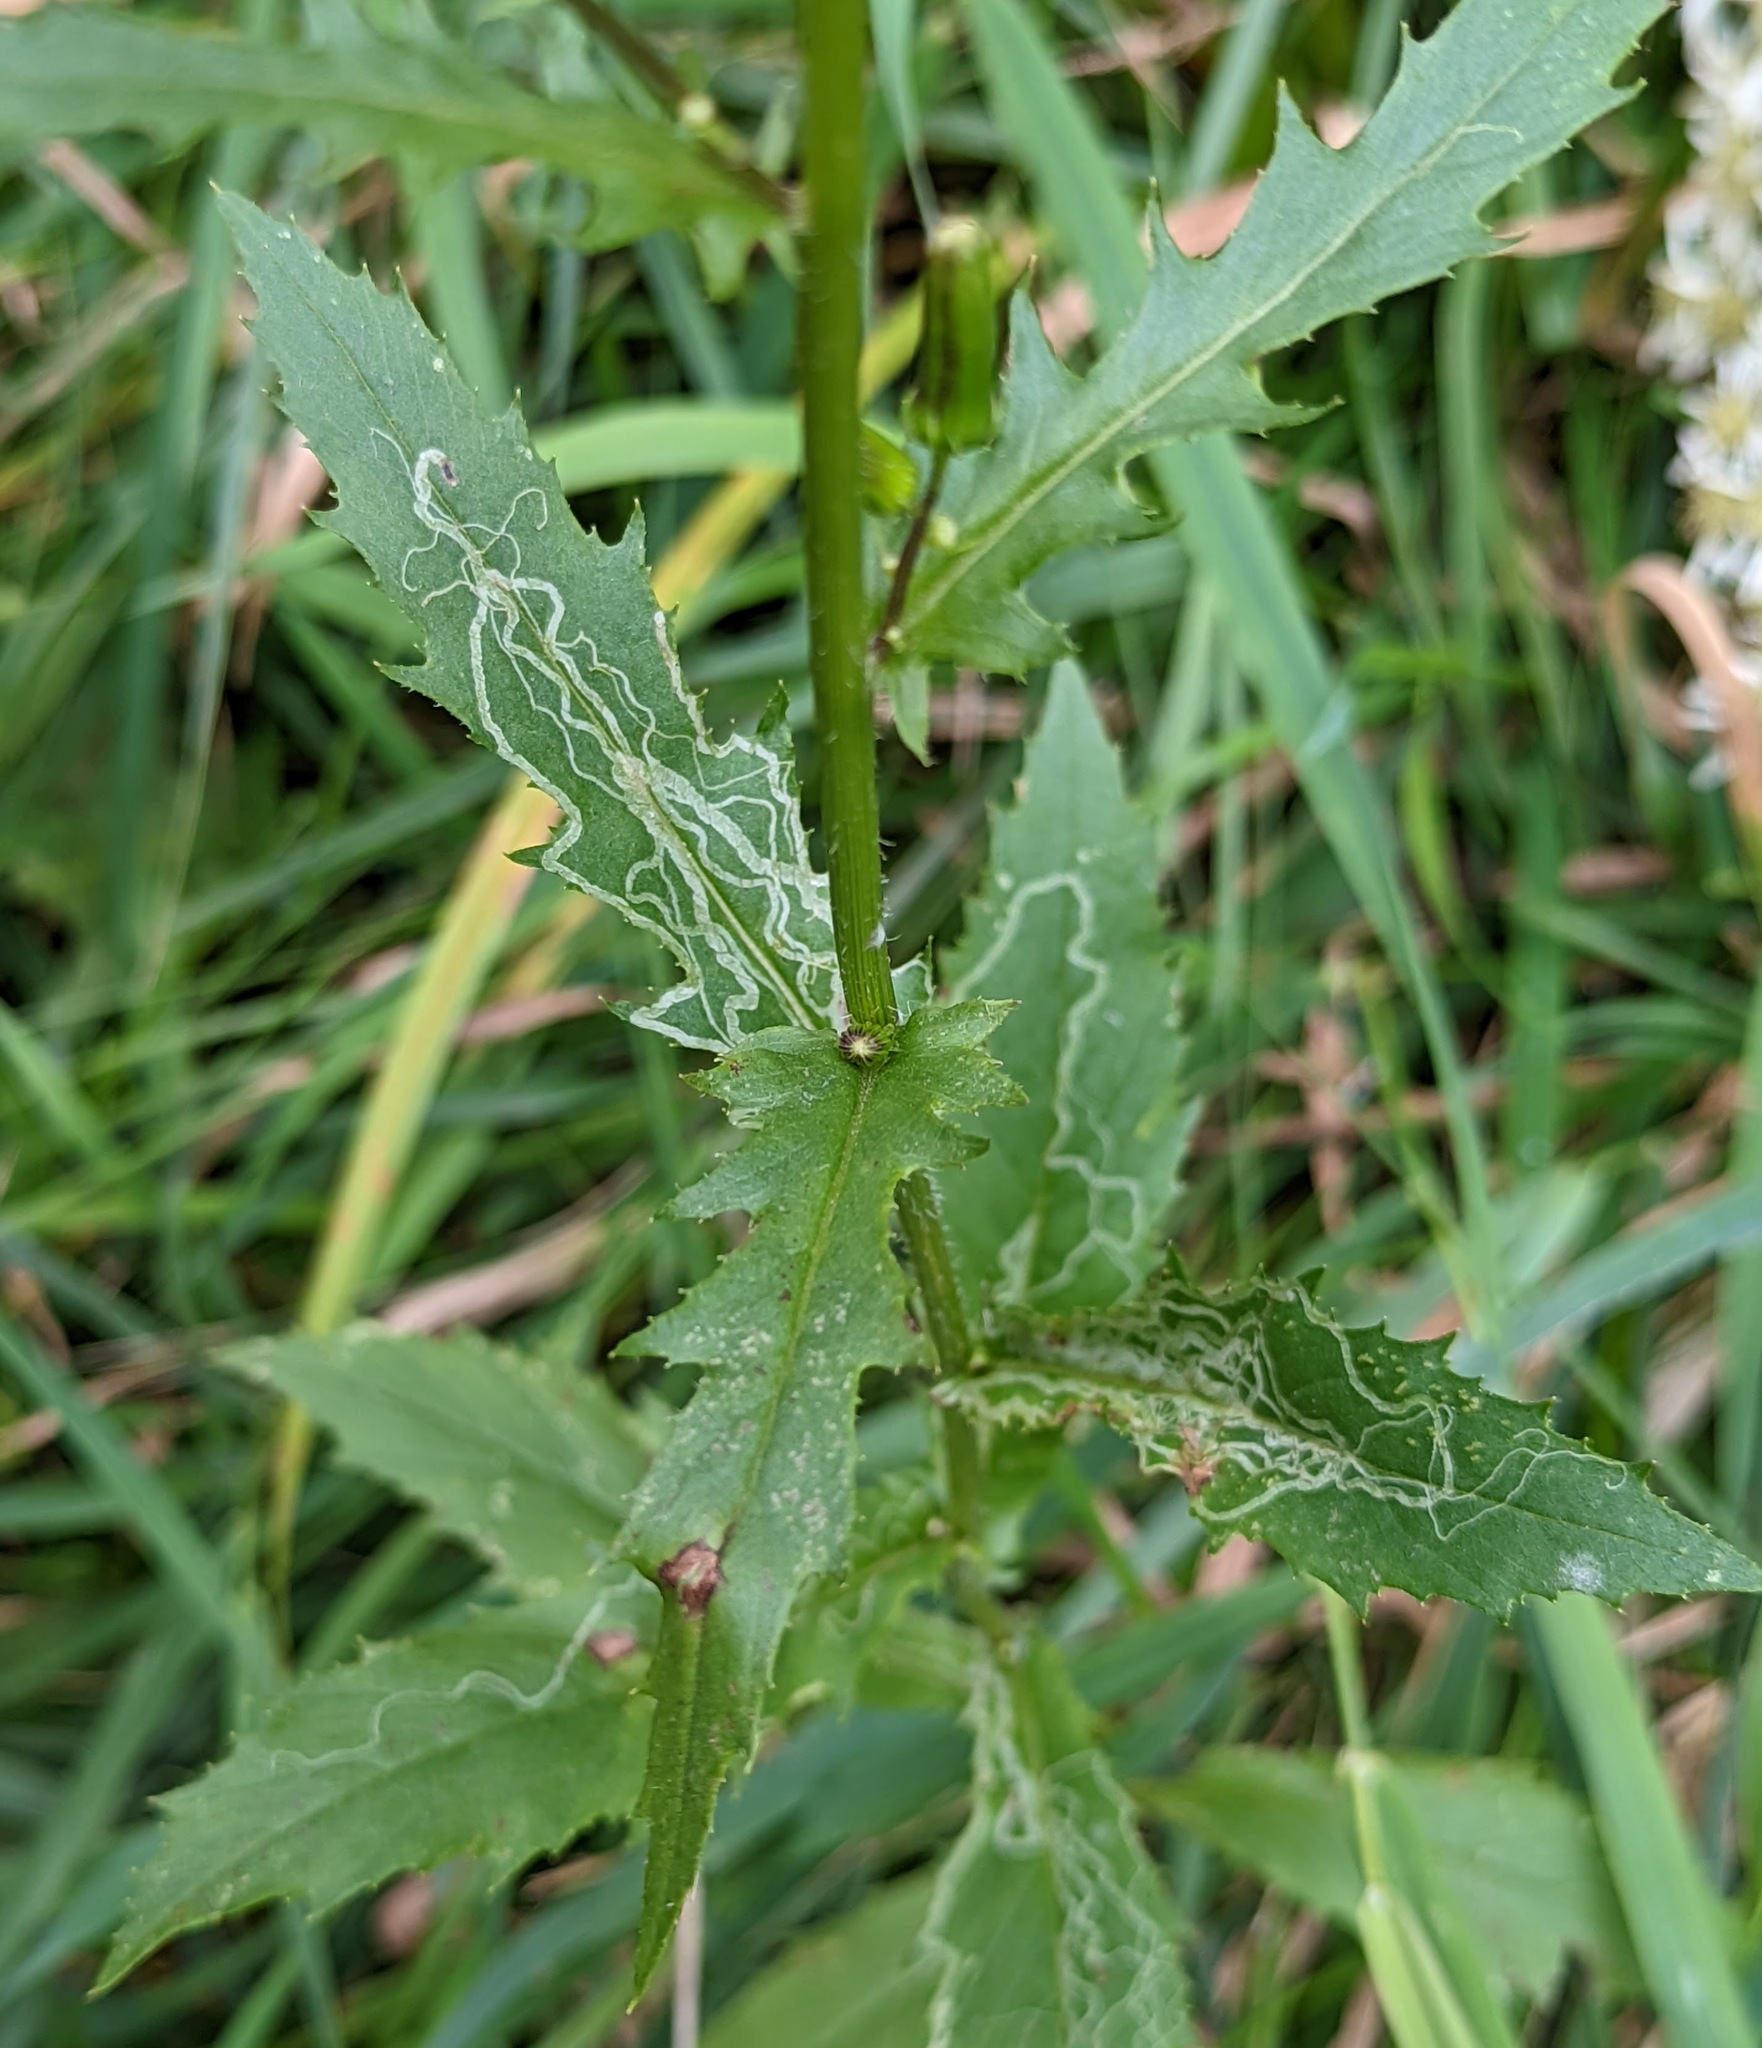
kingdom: Animalia
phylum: Arthropoda
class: Insecta
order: Lepidoptera
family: Gracillariidae
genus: Phyllocnistis
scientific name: Phyllocnistis insignis
